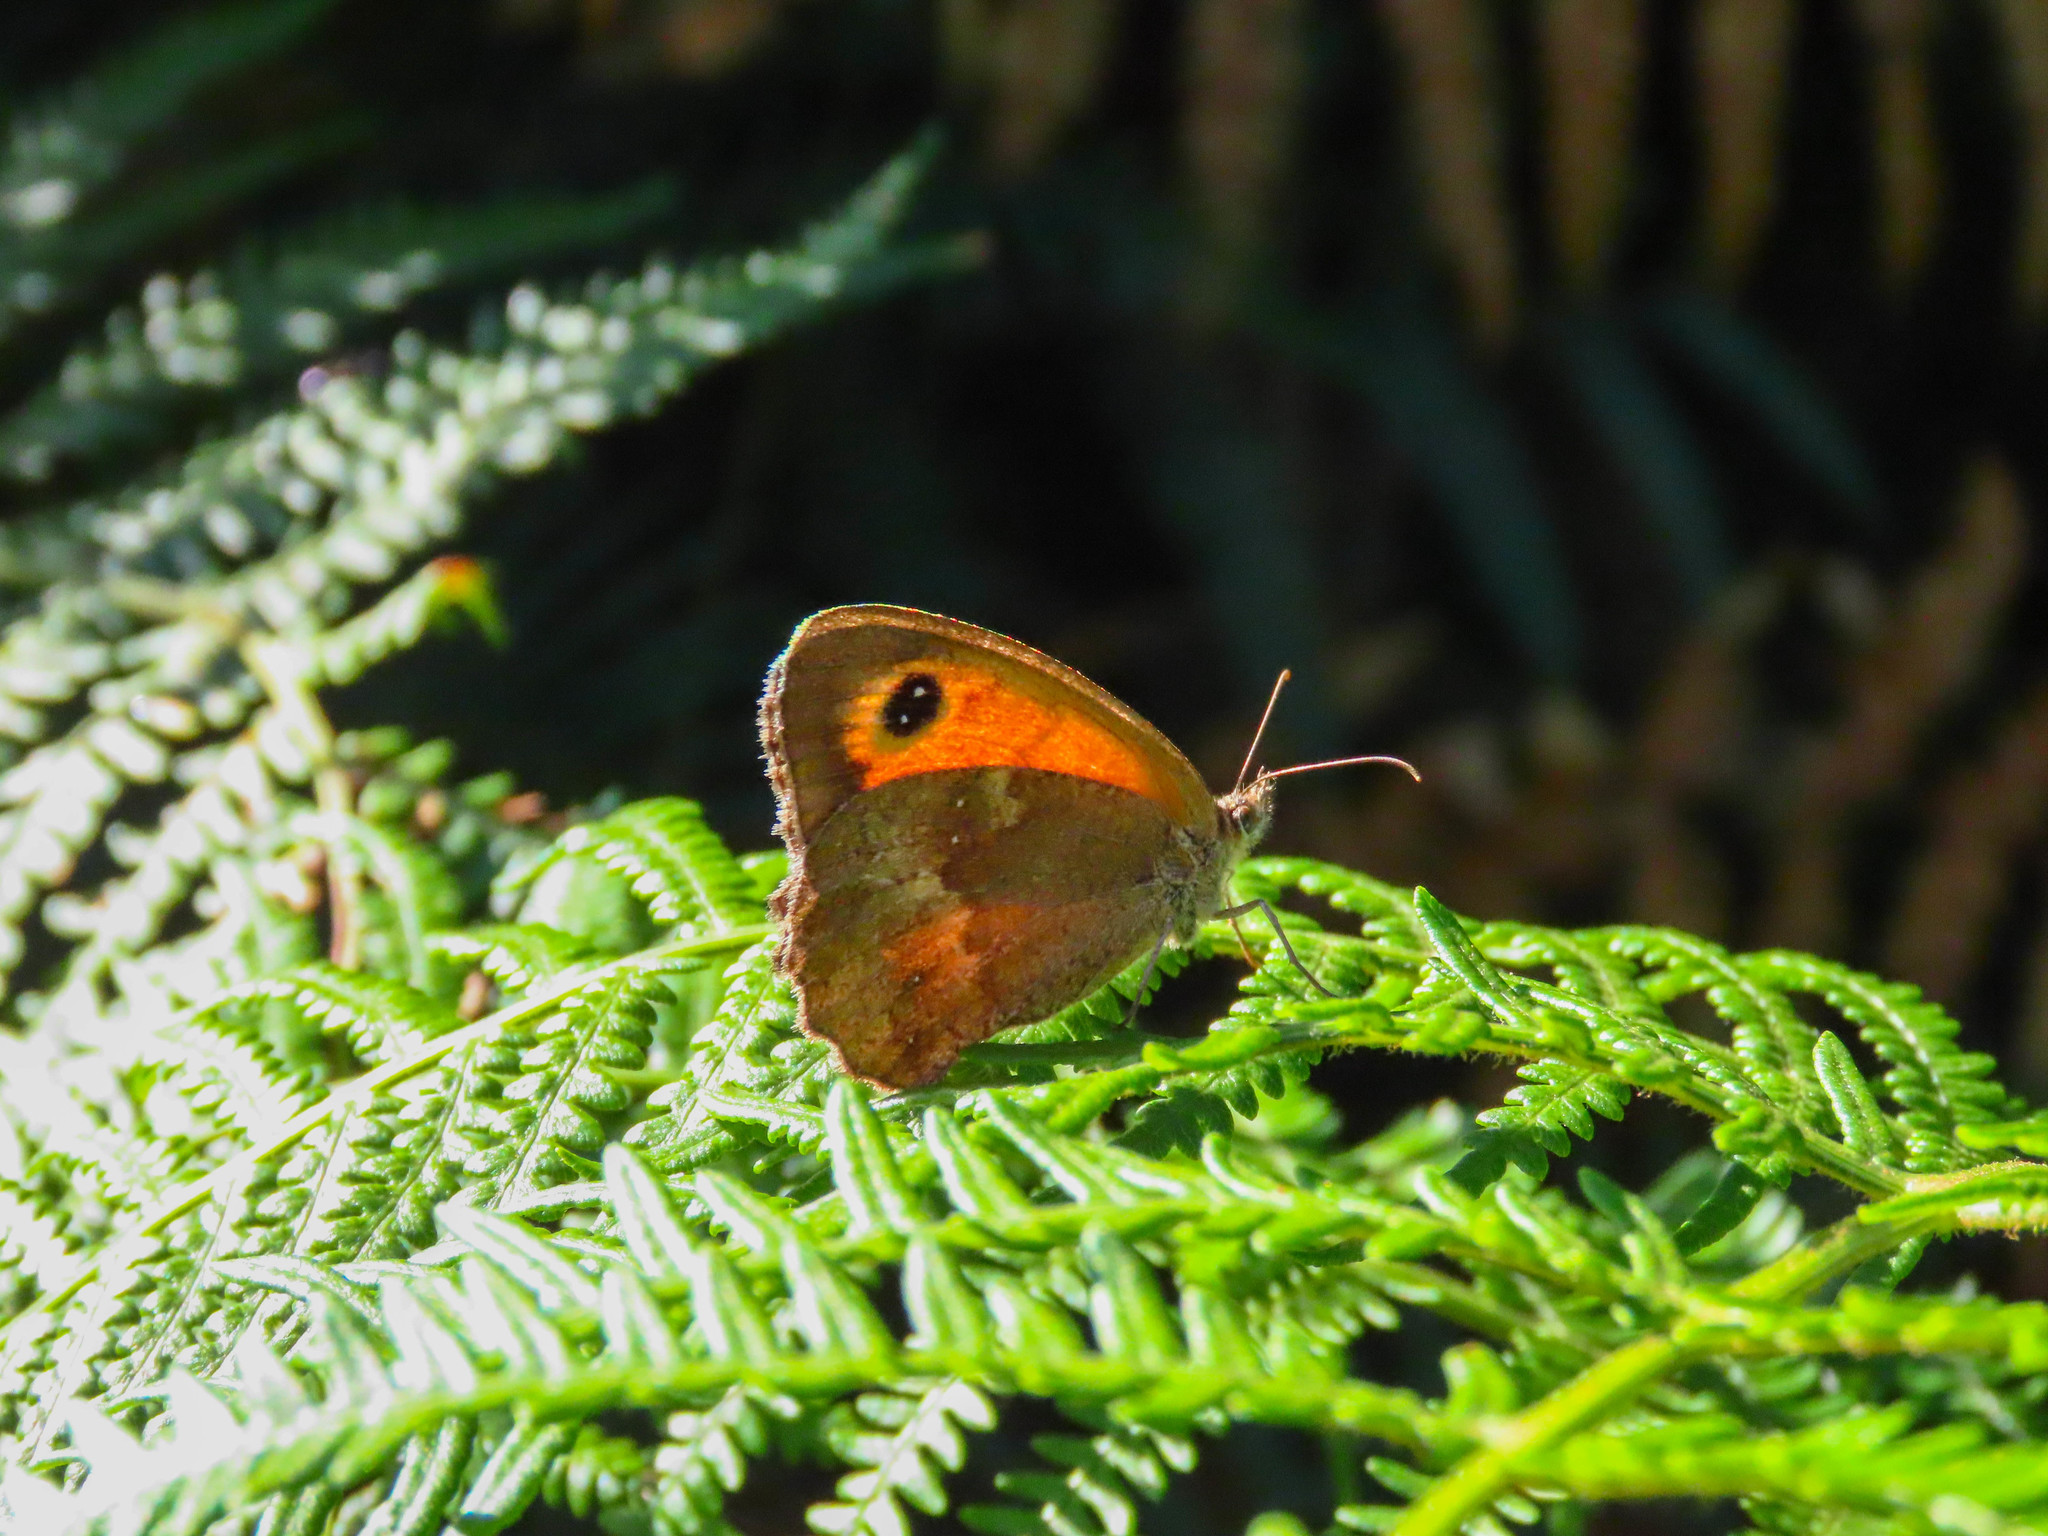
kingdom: Animalia
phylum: Arthropoda
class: Insecta
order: Lepidoptera
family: Nymphalidae
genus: Pyronia
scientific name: Pyronia tithonus
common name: Gatekeeper
